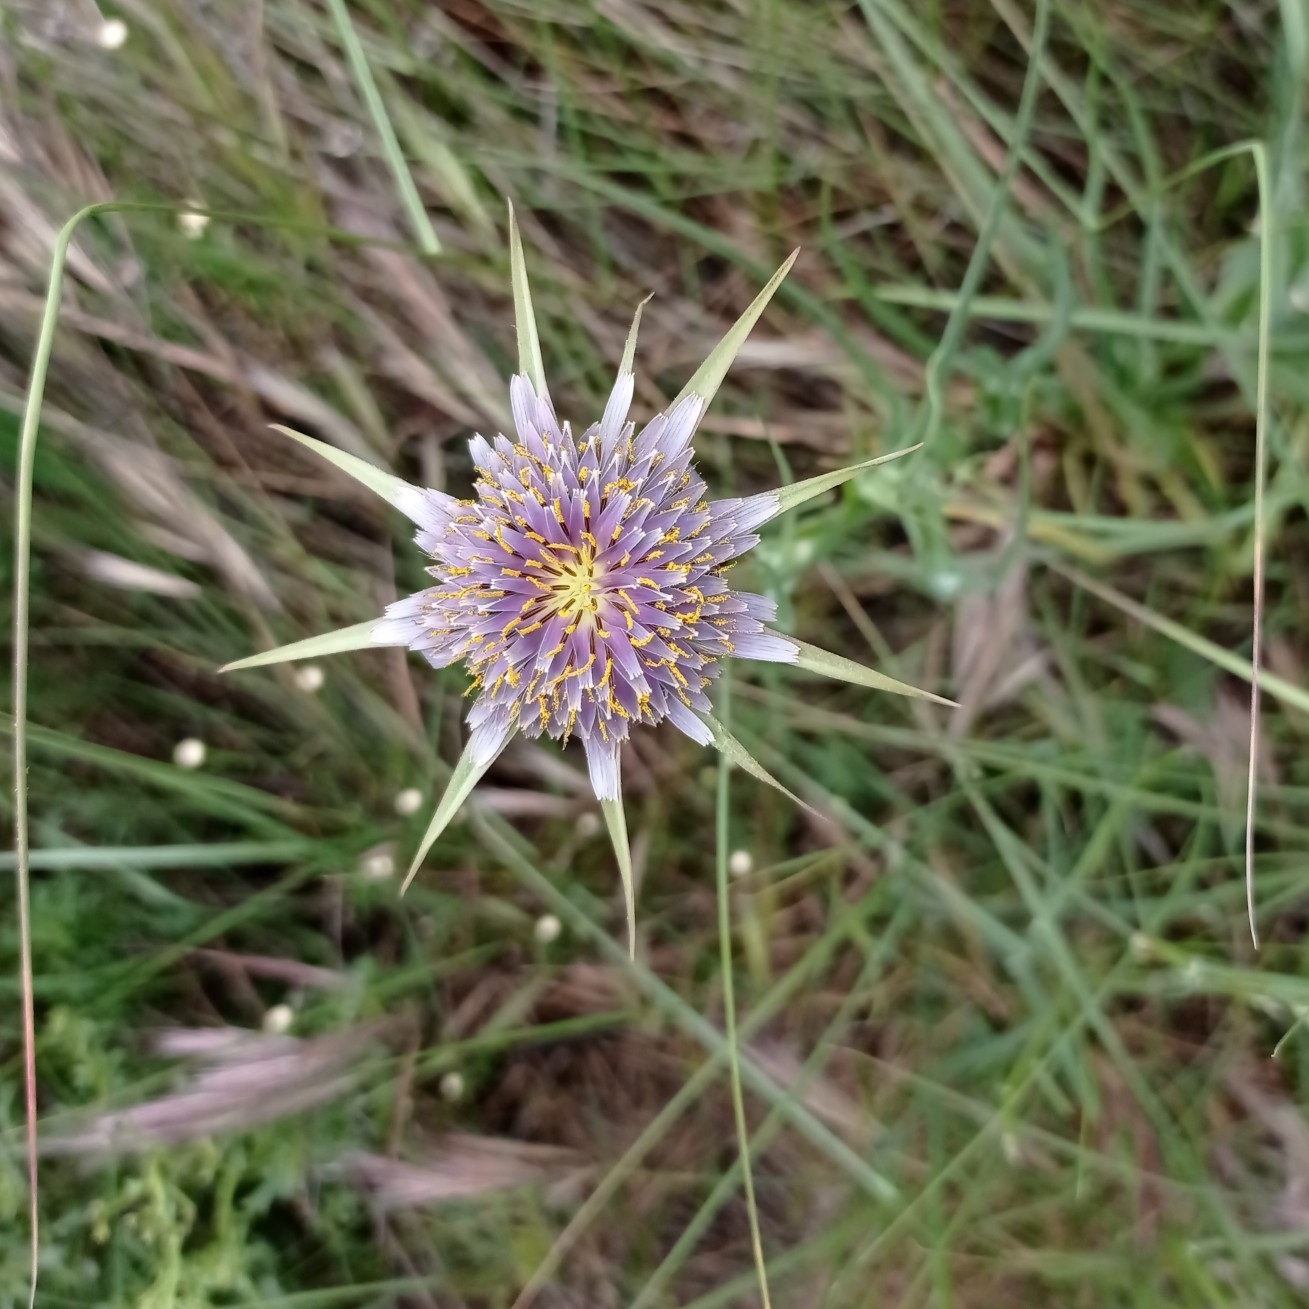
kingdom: Plantae
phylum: Tracheophyta
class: Magnoliopsida
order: Asterales
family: Asteraceae
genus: Tragopogon
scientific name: Tragopogon porrifolius
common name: Salsify
